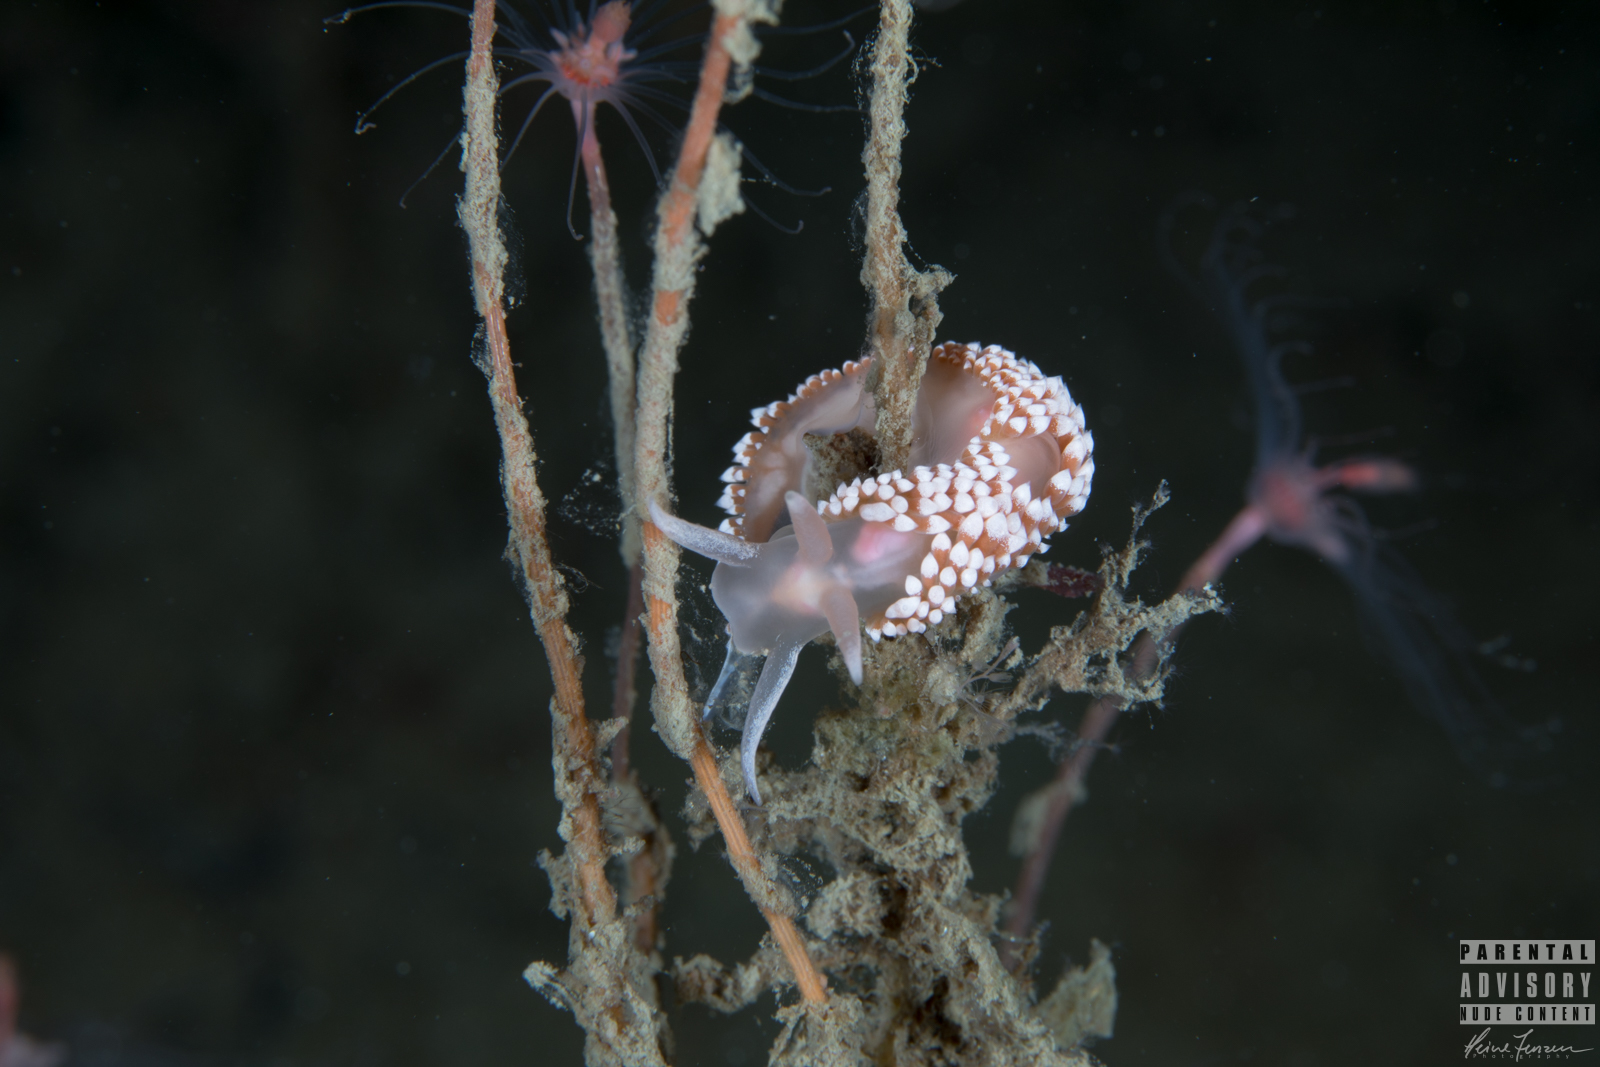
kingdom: Animalia
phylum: Mollusca
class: Gastropoda
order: Nudibranchia
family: Coryphellidae
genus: Coryphella
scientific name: Coryphella verrucosa
